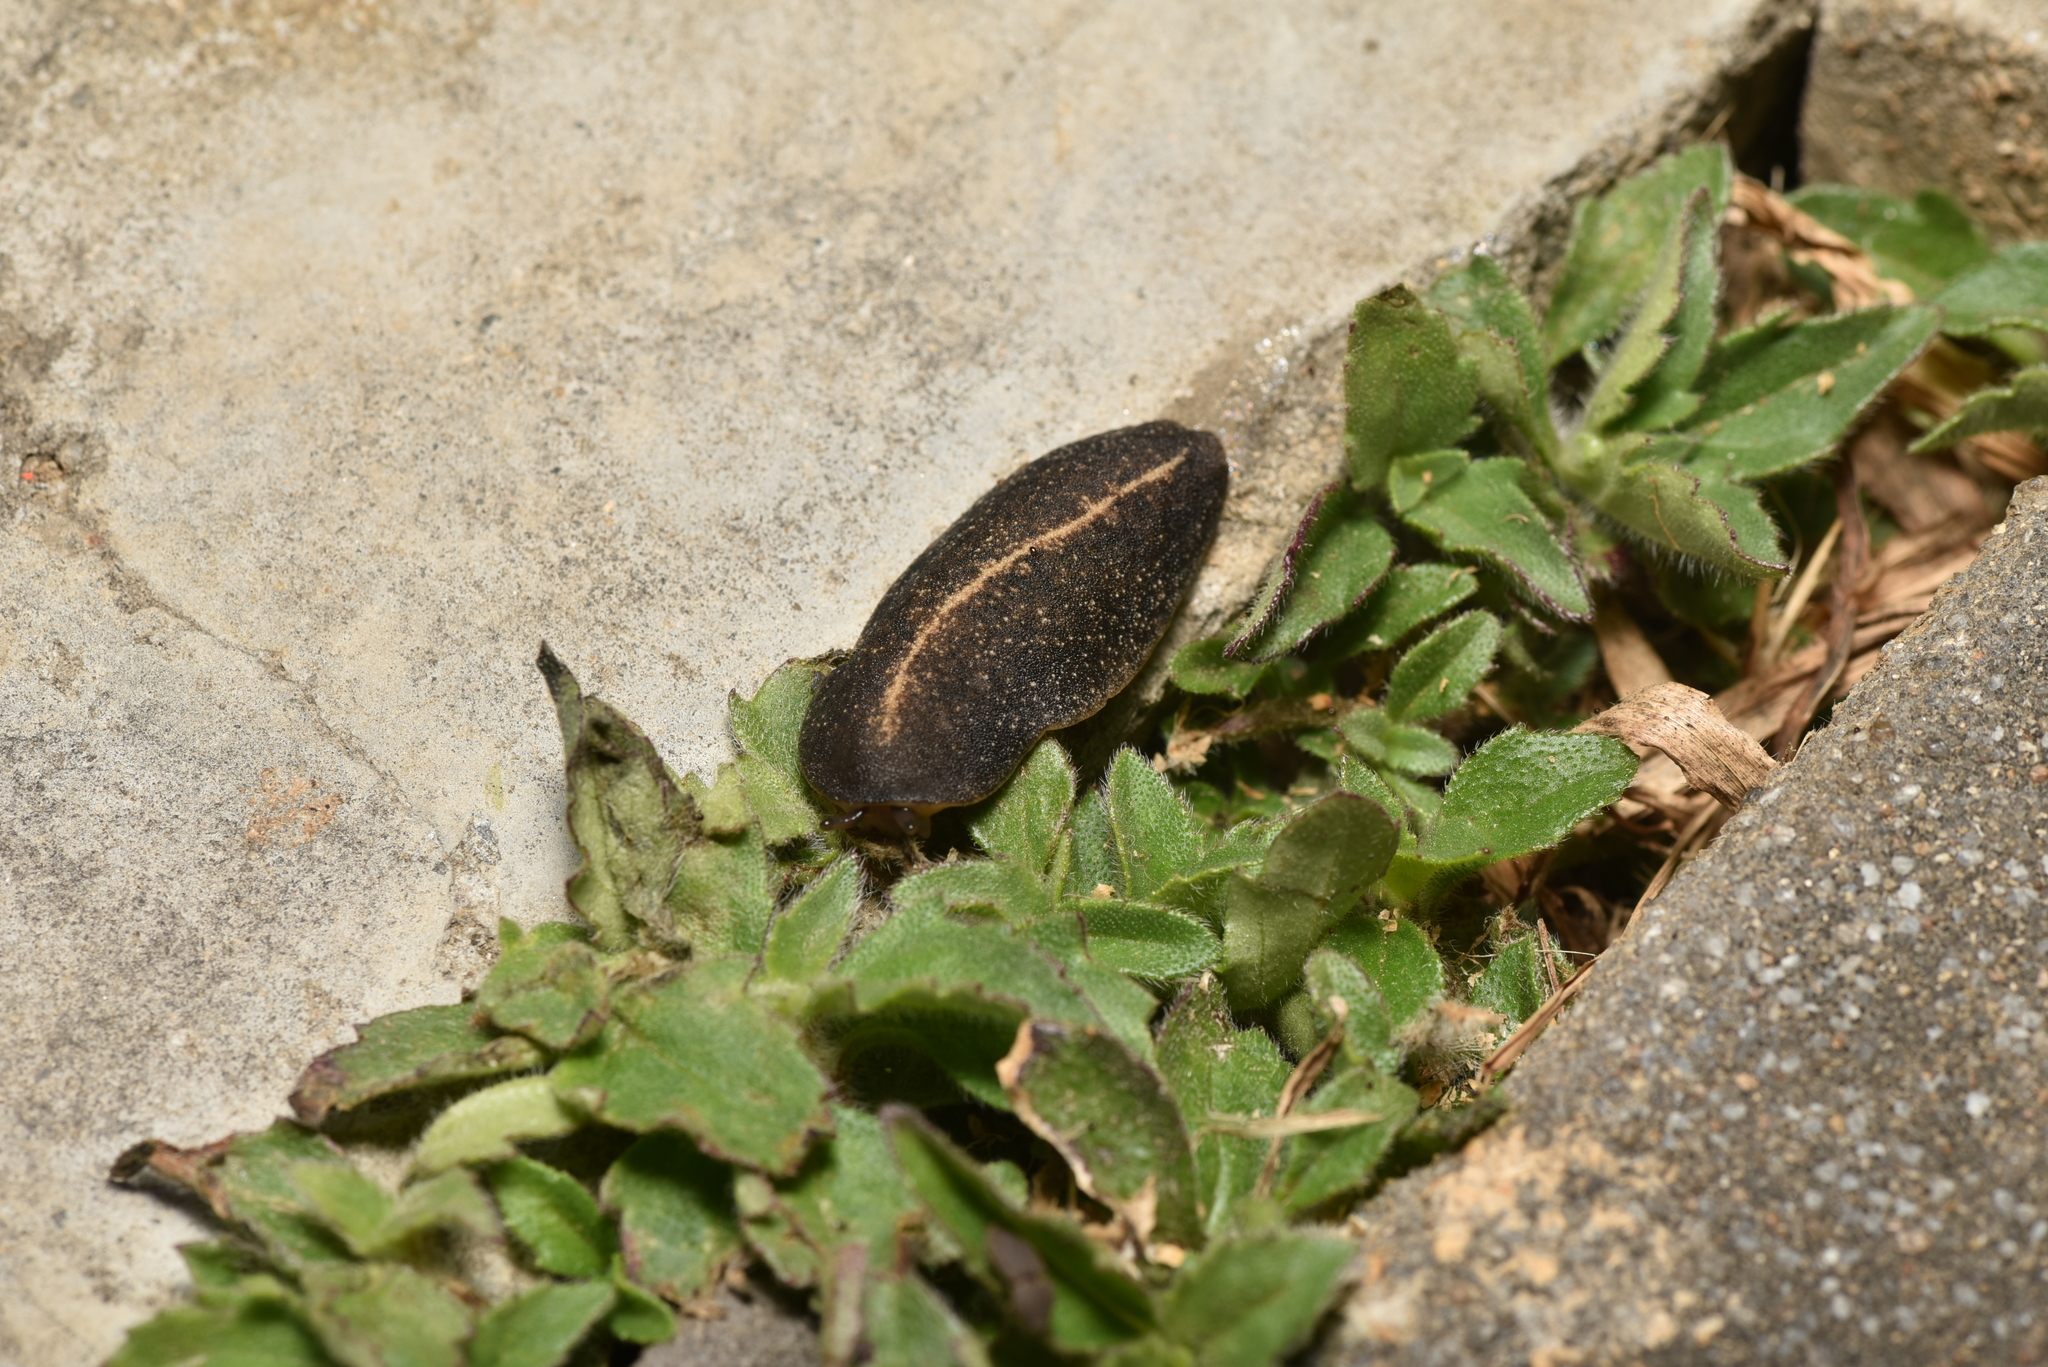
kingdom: Animalia
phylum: Mollusca
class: Gastropoda
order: Systellommatophora
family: Veronicellidae
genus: Laevicaulis
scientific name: Laevicaulis alte
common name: Tropical leatherleaf
